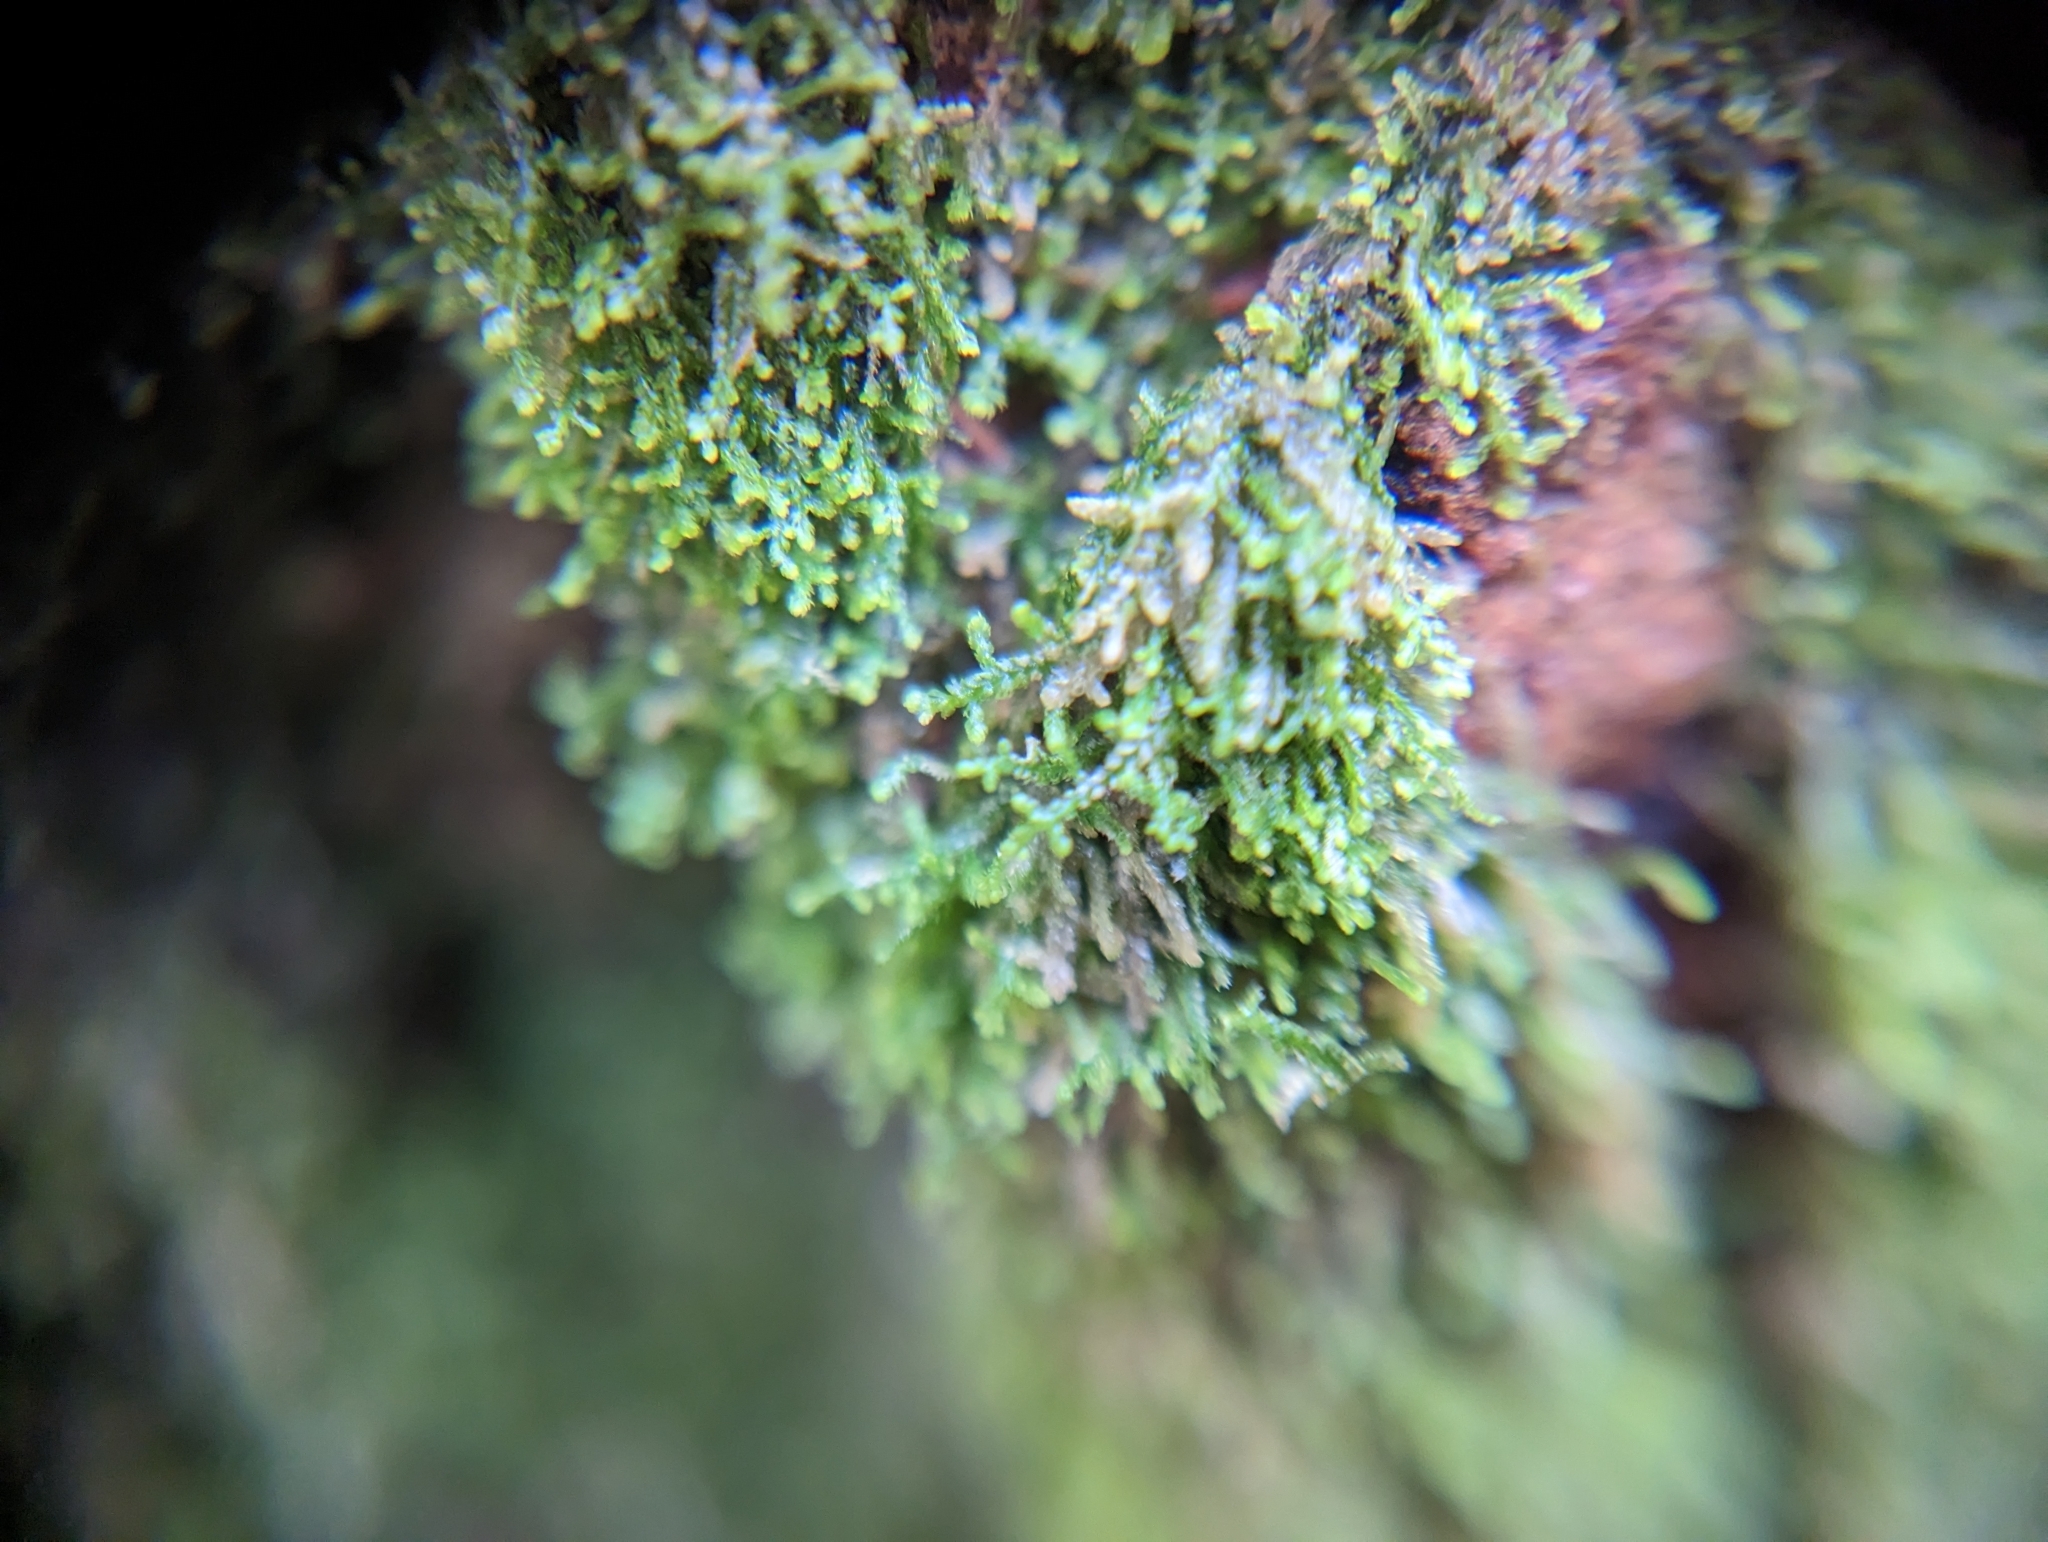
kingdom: Plantae
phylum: Marchantiophyta
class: Jungermanniopsida
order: Jungermanniales
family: Lepidoziaceae
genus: Lepidozia
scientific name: Lepidozia reptans
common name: Creeping fingerwort
